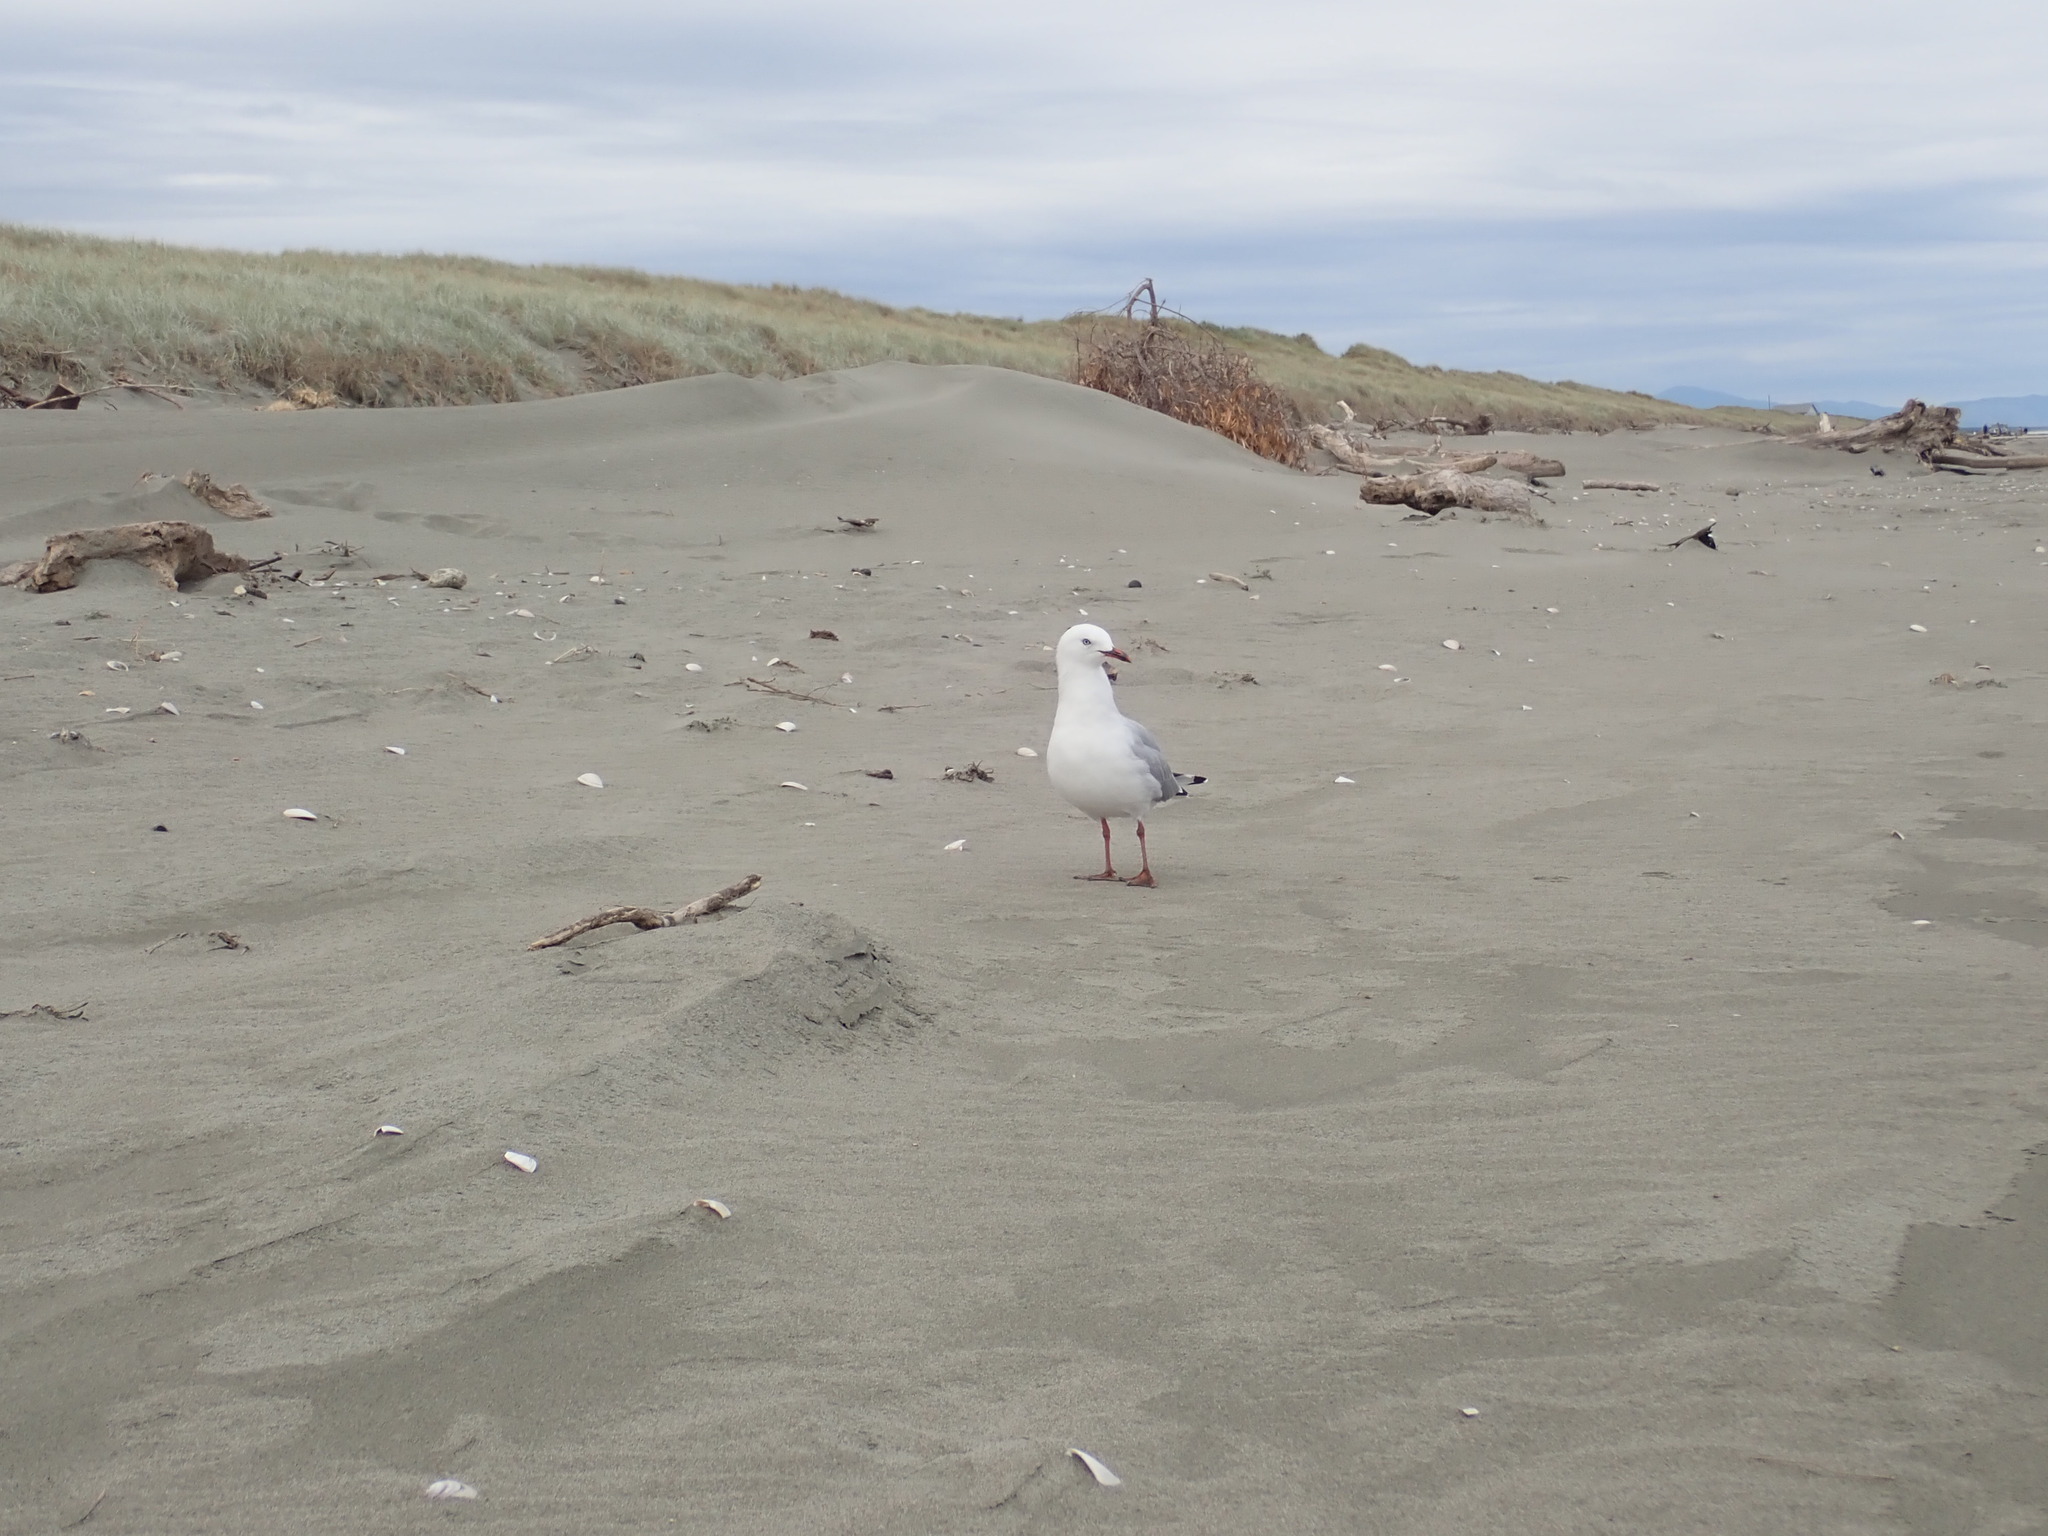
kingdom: Animalia
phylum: Chordata
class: Aves
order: Charadriiformes
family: Laridae
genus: Chroicocephalus
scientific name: Chroicocephalus novaehollandiae
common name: Silver gull
